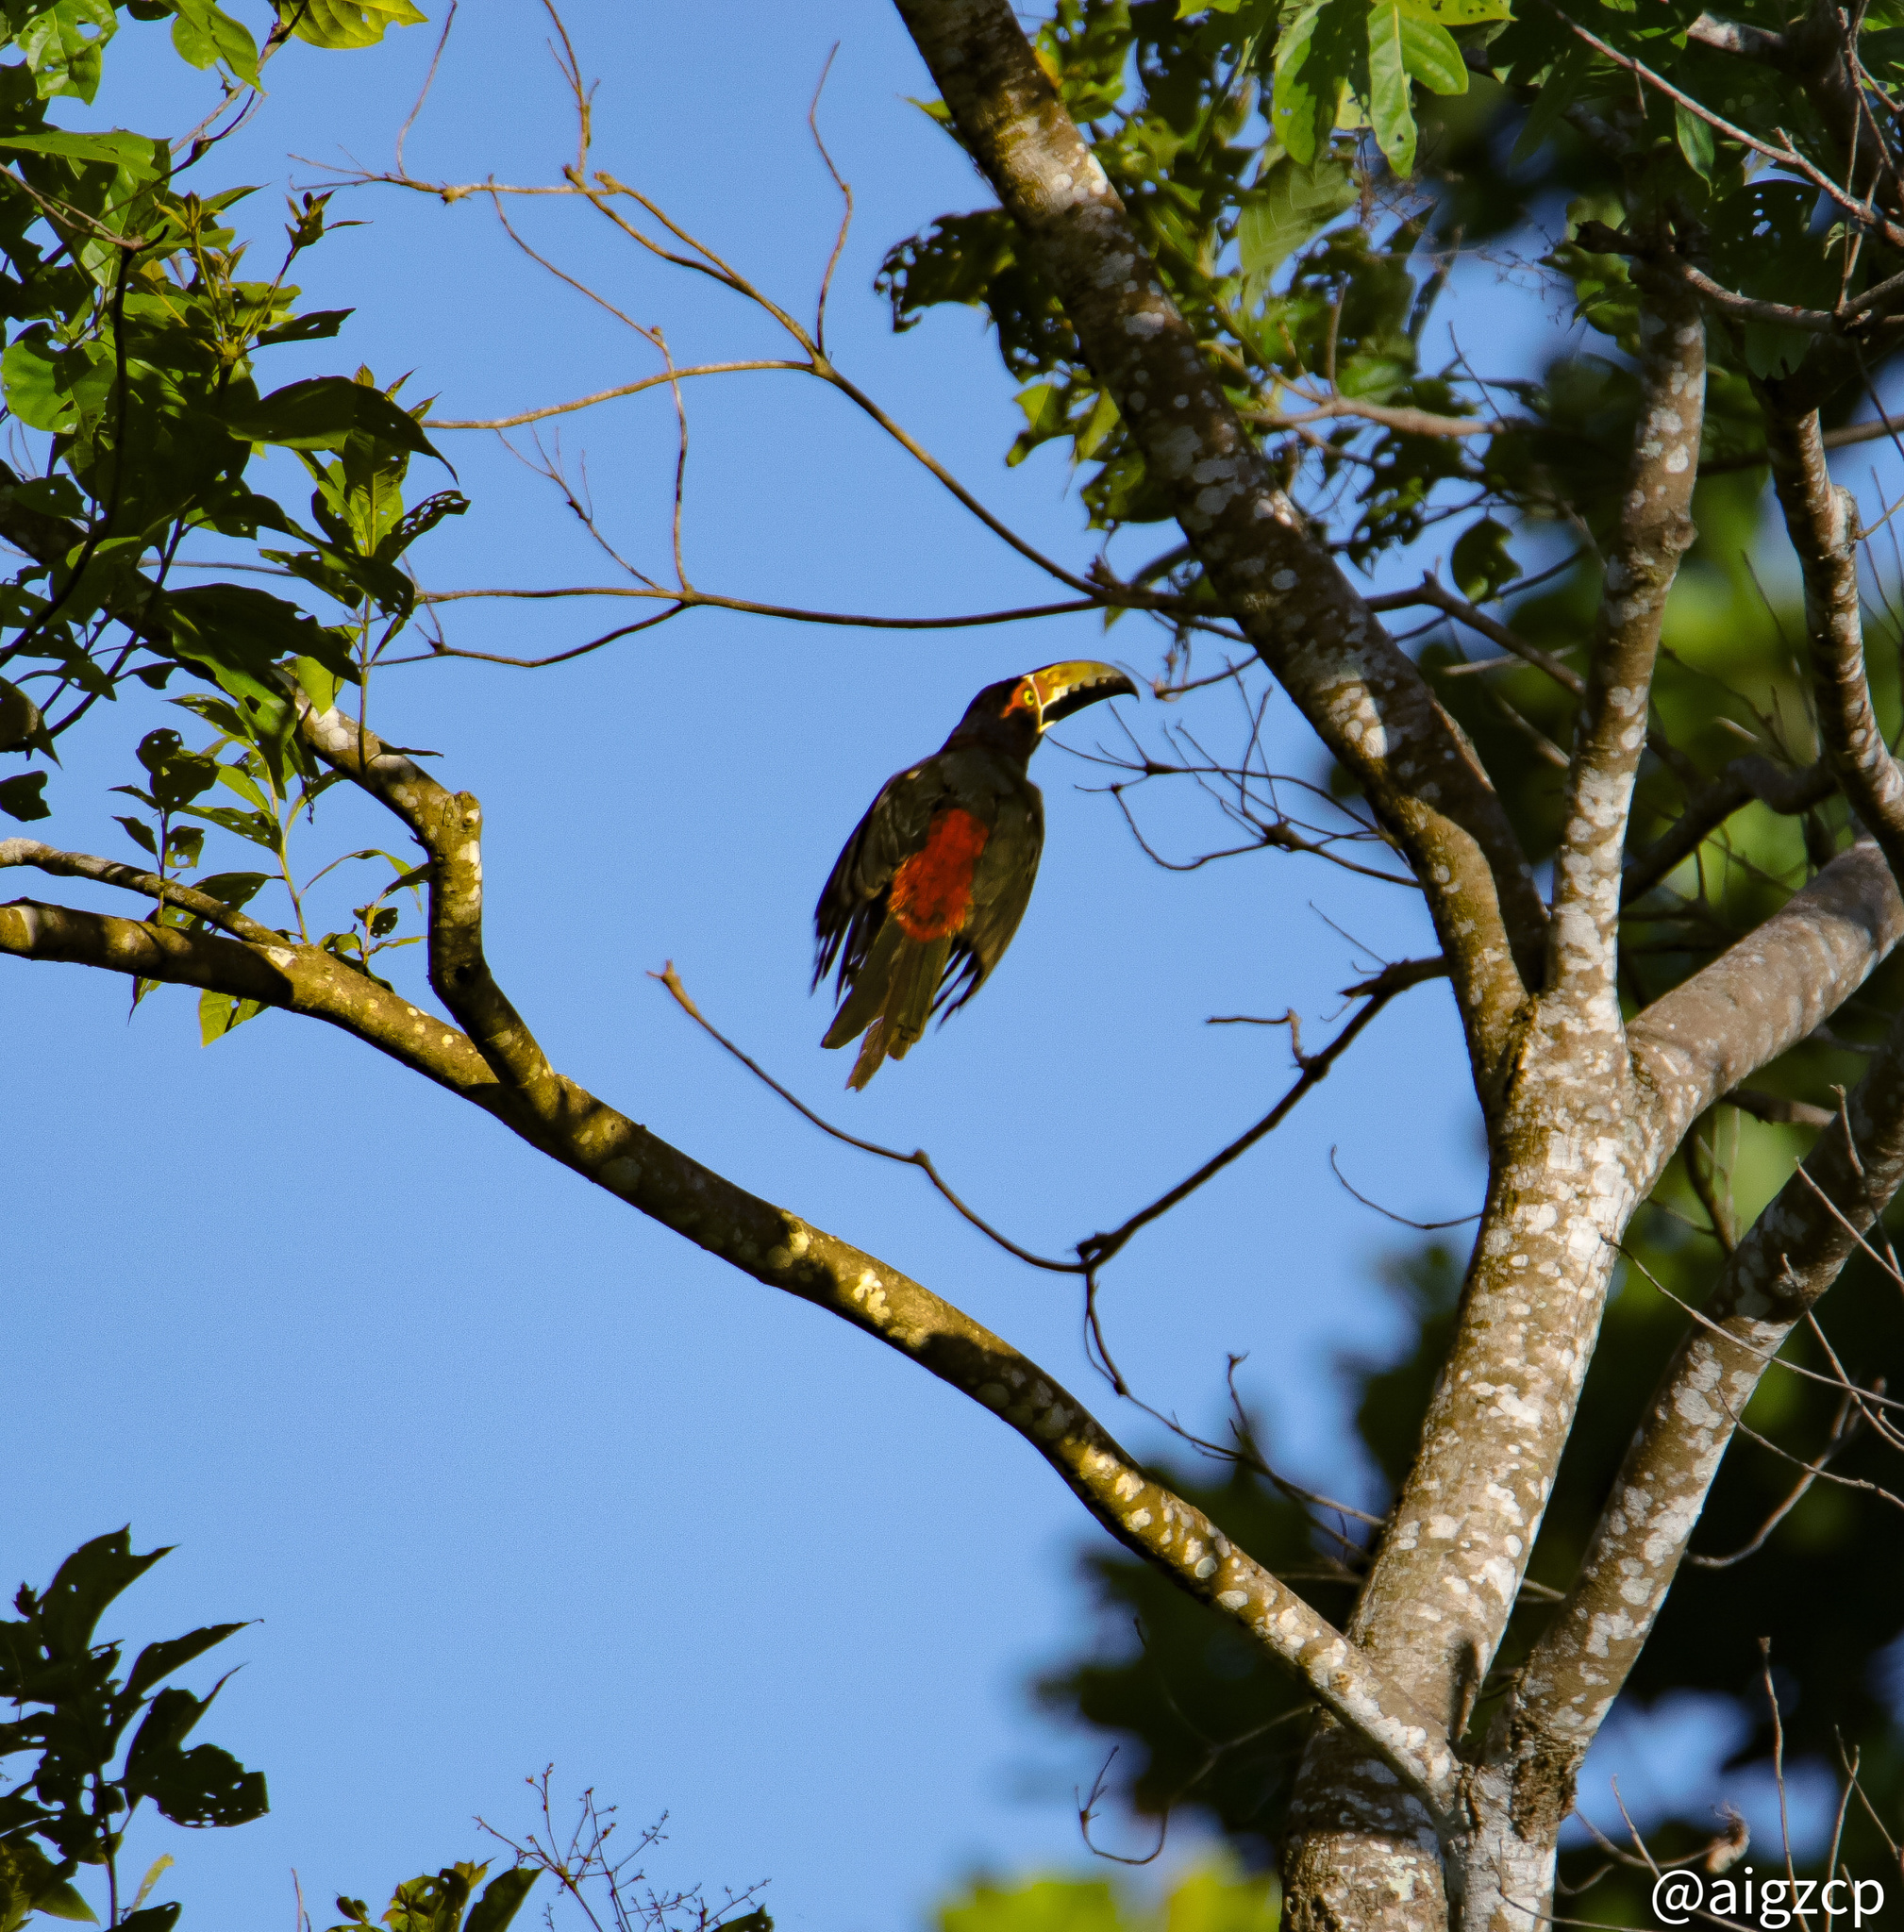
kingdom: Animalia
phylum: Chordata
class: Aves
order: Piciformes
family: Ramphastidae
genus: Pteroglossus
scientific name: Pteroglossus torquatus
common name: Collared aracari
